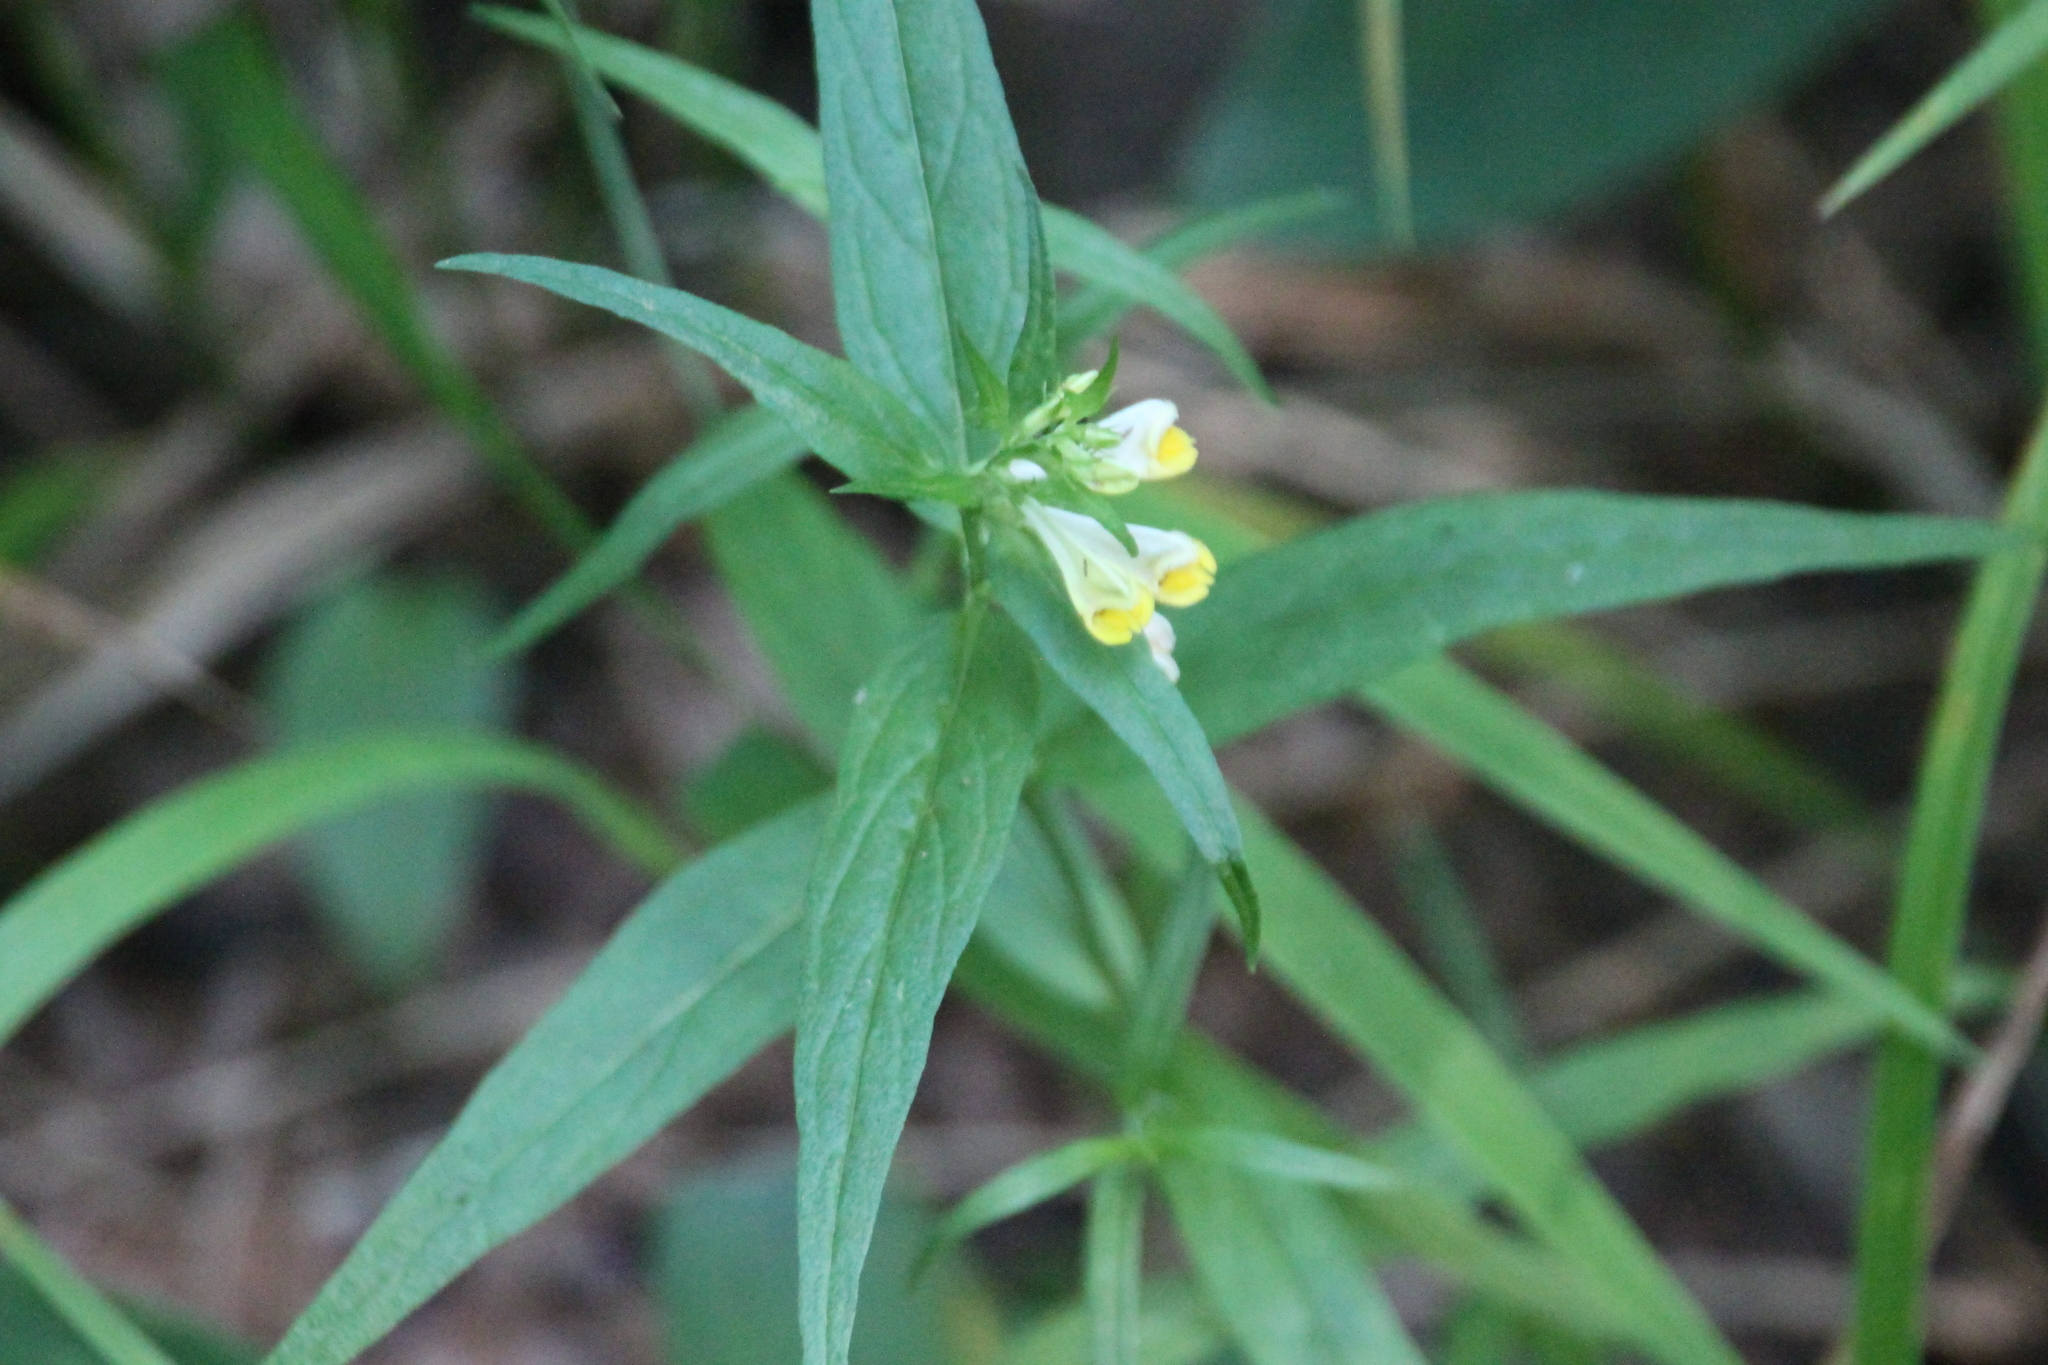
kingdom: Plantae
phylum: Tracheophyta
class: Magnoliopsida
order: Lamiales
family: Orobanchaceae
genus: Melampyrum
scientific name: Melampyrum pratense
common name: Common cow-wheat
